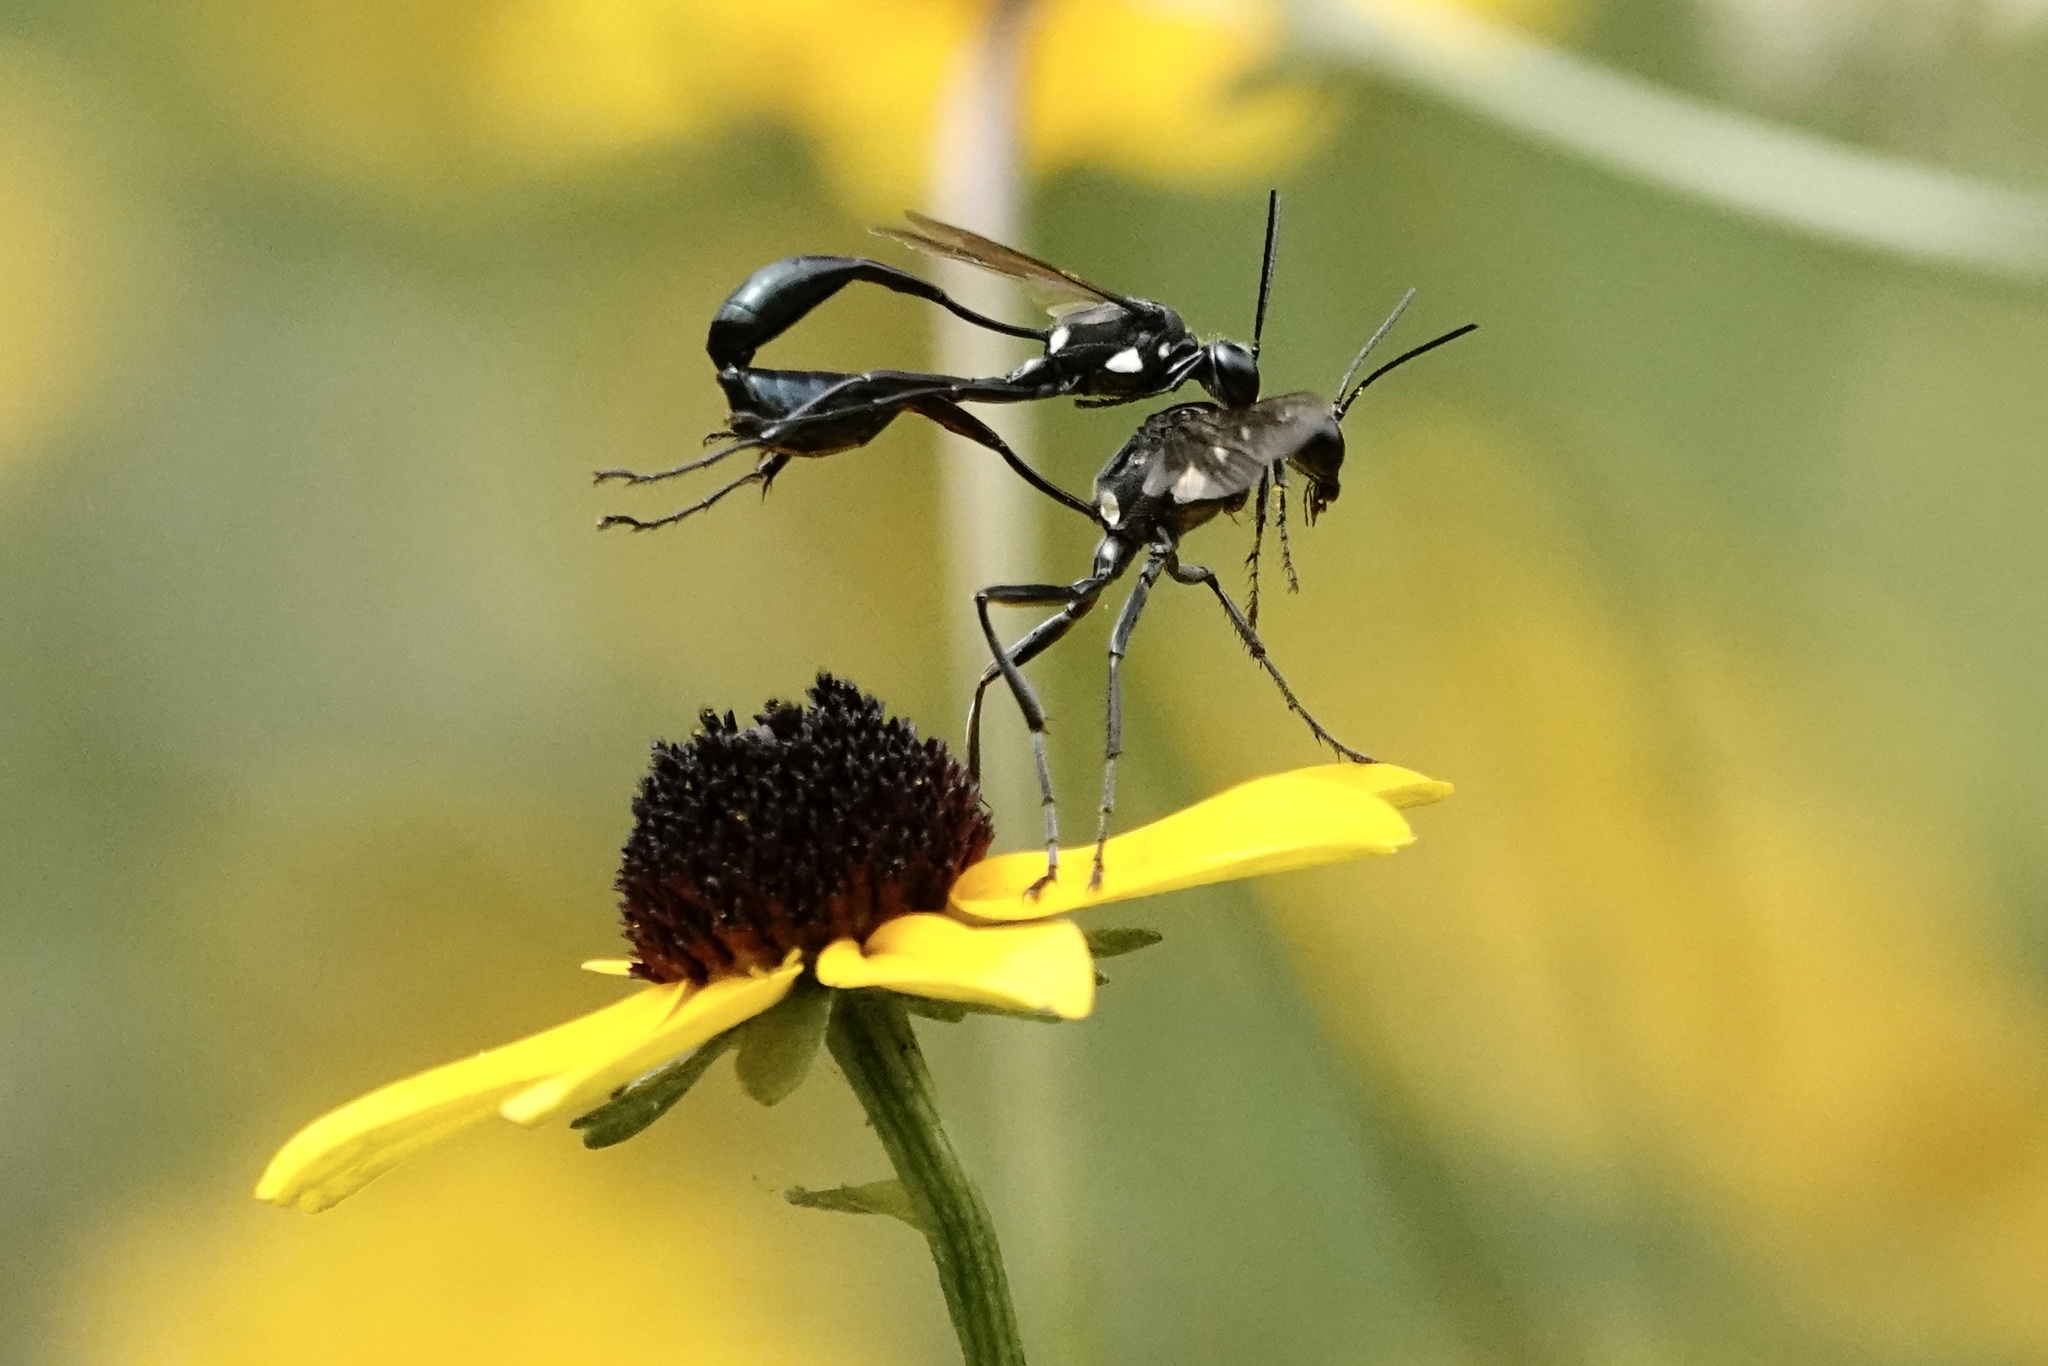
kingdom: Animalia
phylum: Arthropoda
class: Insecta
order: Hymenoptera
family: Sphecidae
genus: Eremnophila
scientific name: Eremnophila aureonotata
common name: Gold-marked thread-waisted wasp
